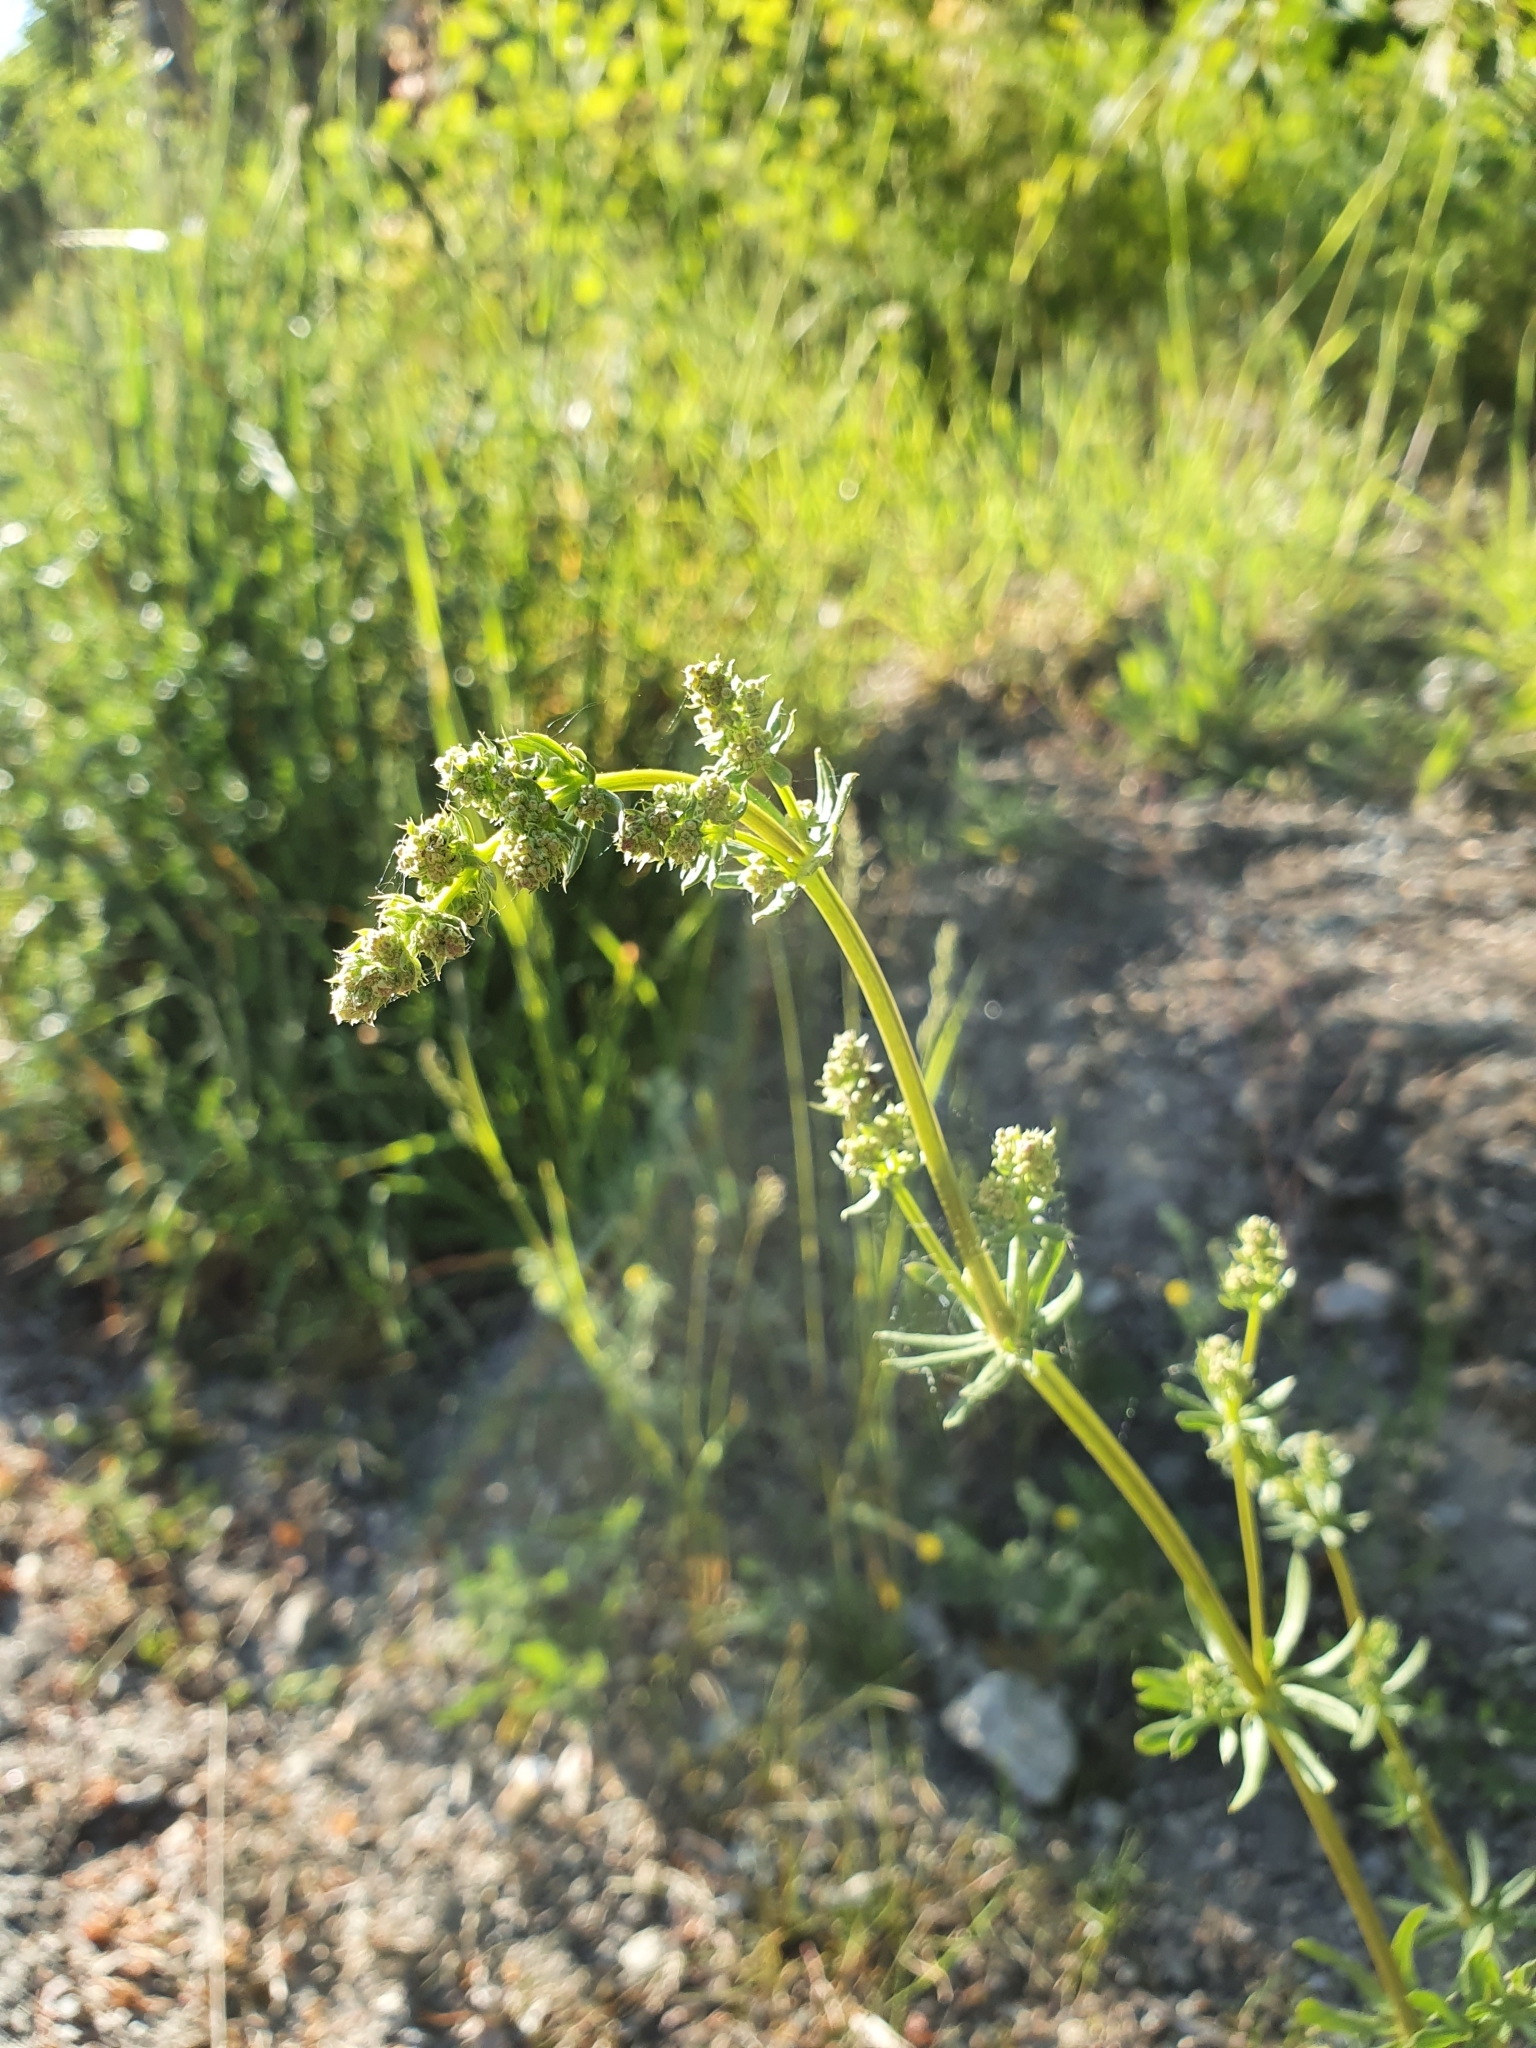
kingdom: Plantae
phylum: Tracheophyta
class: Magnoliopsida
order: Gentianales
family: Rubiaceae
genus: Galium
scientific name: Galium album
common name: White bedstraw
